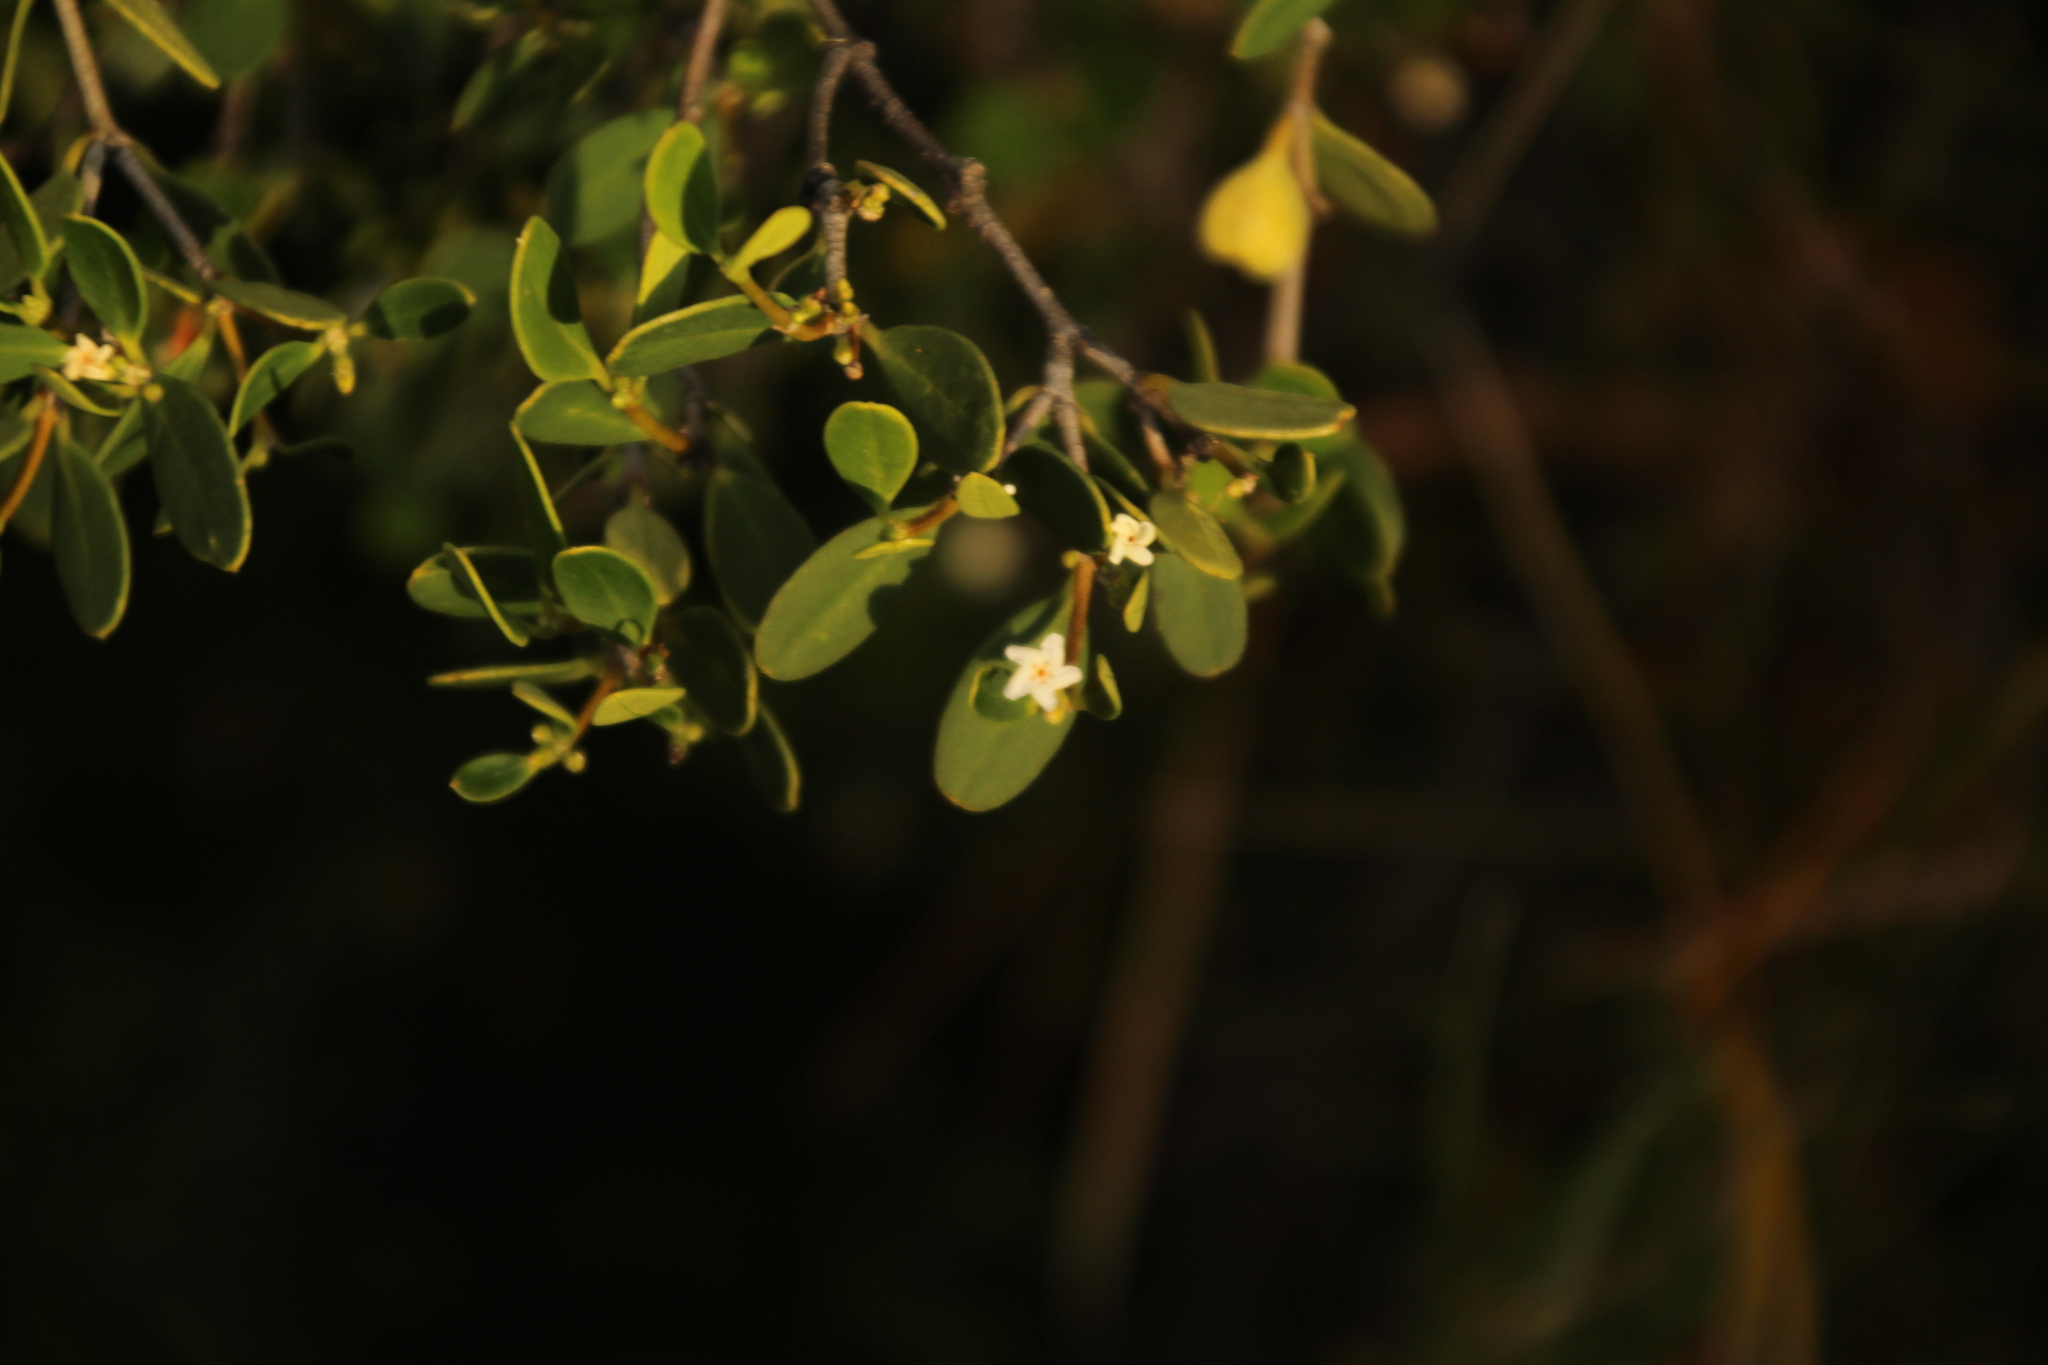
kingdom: Plantae
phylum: Tracheophyta
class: Magnoliopsida
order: Gentianales
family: Apocynaceae
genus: Alyxia
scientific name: Alyxia buxifolia
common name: Dysentery-bush
